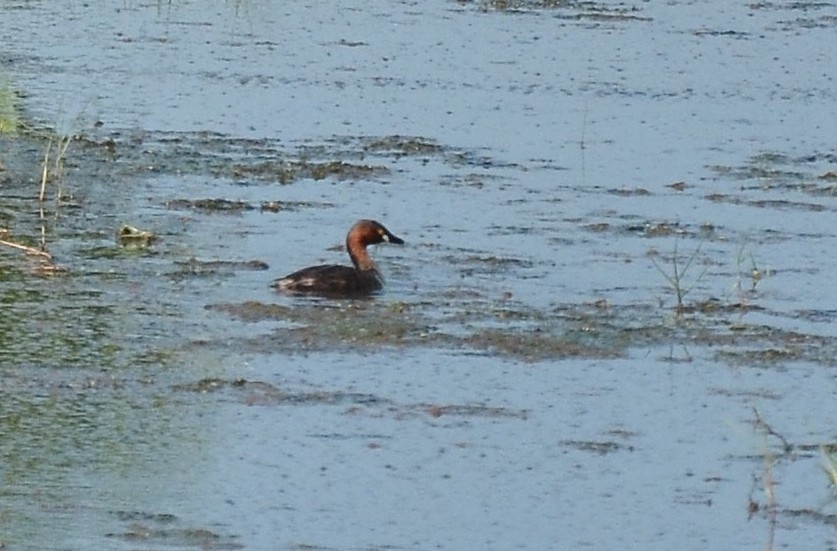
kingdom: Animalia
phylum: Chordata
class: Aves
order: Podicipediformes
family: Podicipedidae
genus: Tachybaptus
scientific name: Tachybaptus ruficollis
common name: Little grebe
